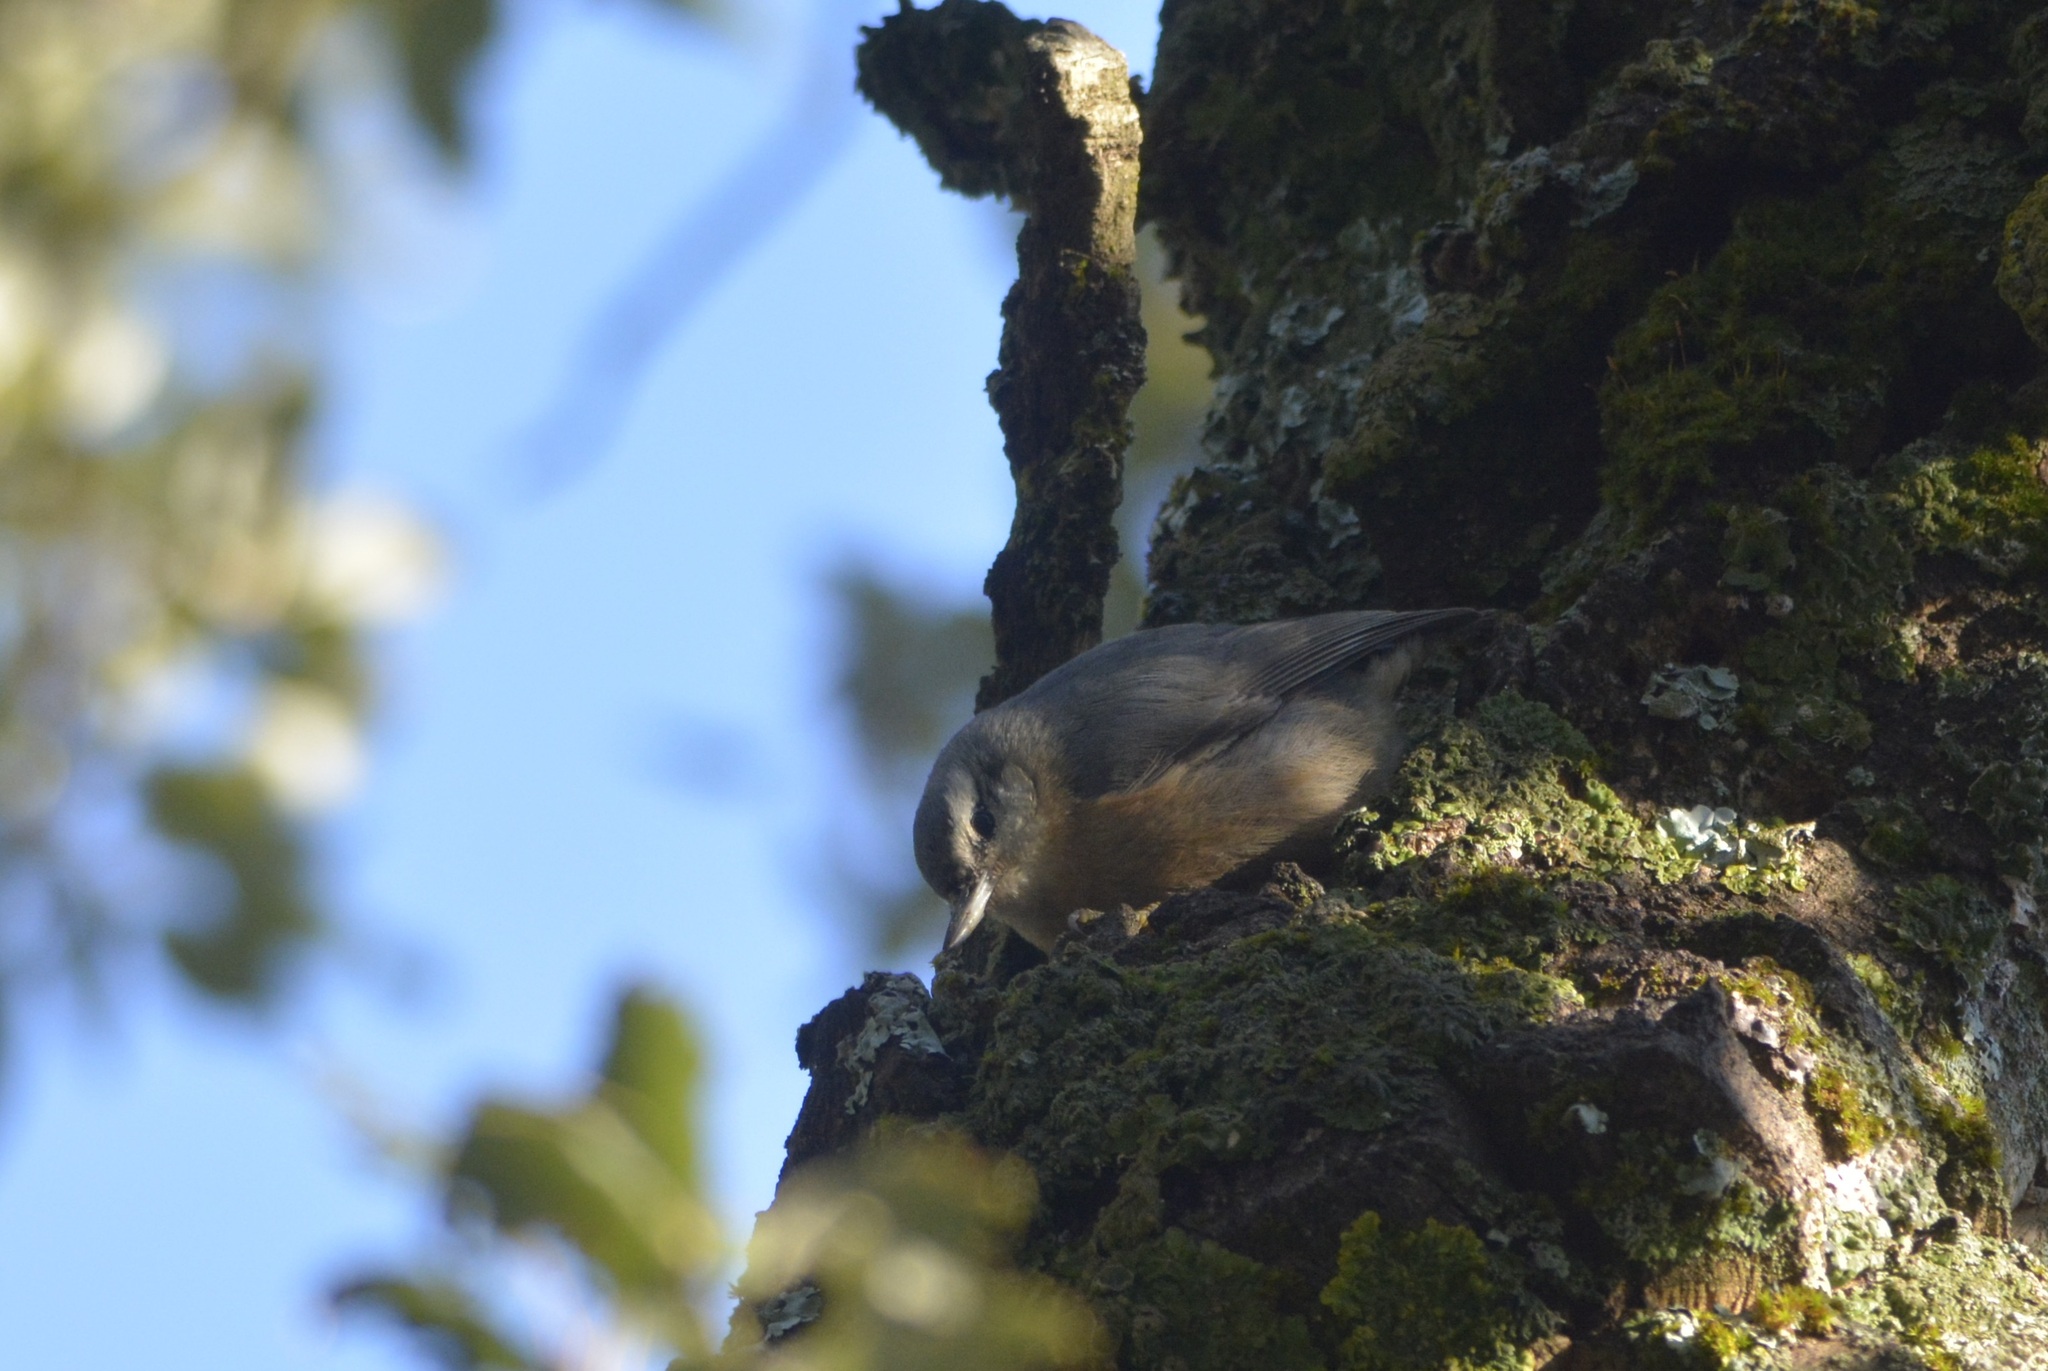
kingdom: Animalia
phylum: Chordata
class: Aves
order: Passeriformes
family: Sittidae
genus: Sitta
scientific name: Sitta ledanti
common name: Algerian nuthatch
